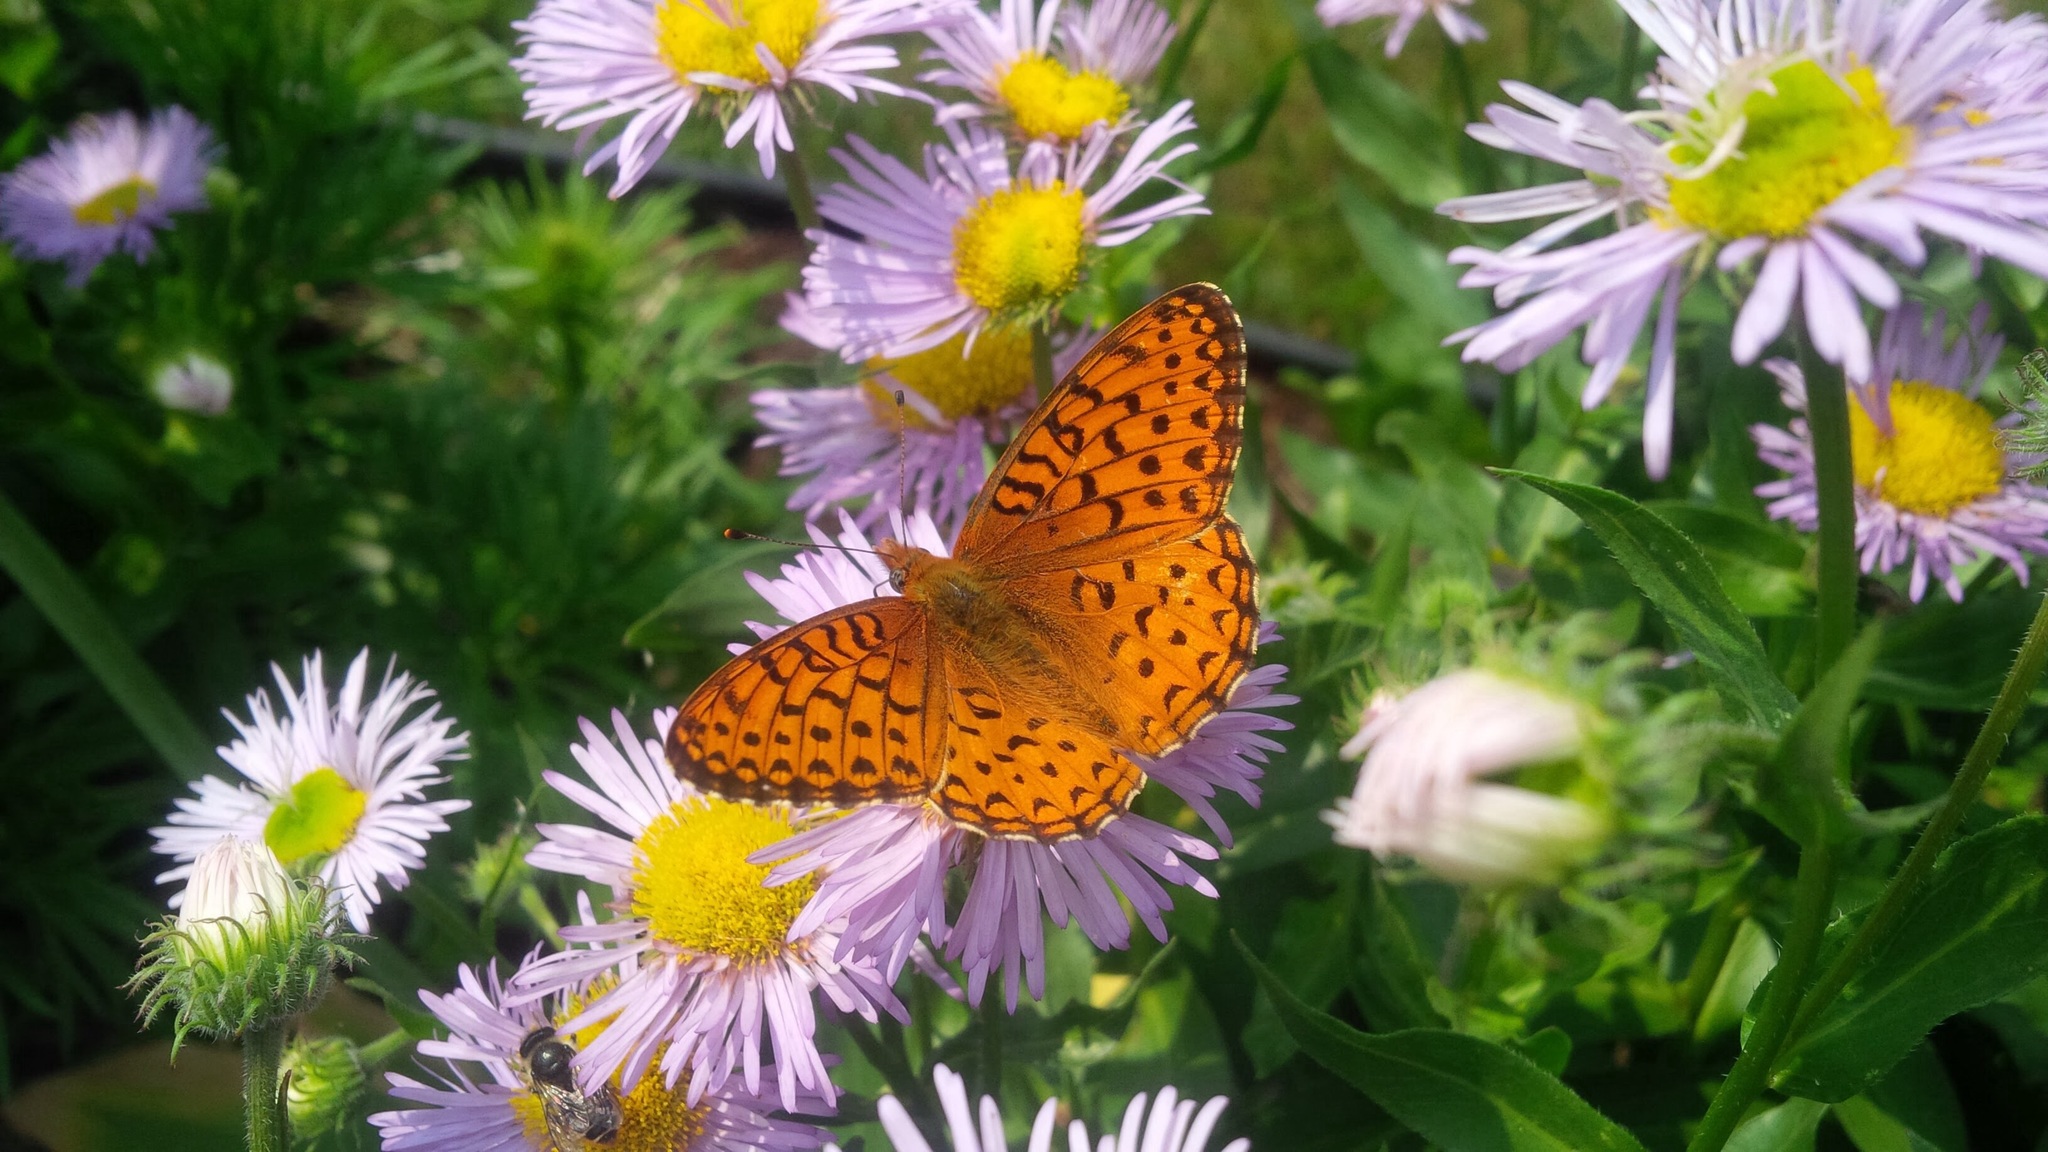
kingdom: Animalia
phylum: Arthropoda
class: Insecta
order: Lepidoptera
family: Nymphalidae
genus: Speyeria
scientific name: Speyeria atlantis
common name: Atlantis fritillary
